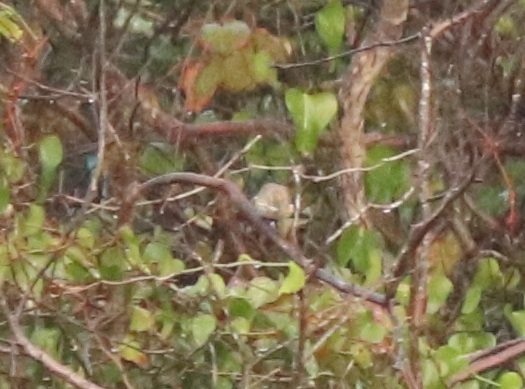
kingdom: Animalia
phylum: Chordata
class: Aves
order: Passeriformes
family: Parulidae
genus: Setophaga
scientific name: Setophaga coronata
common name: Myrtle warbler
